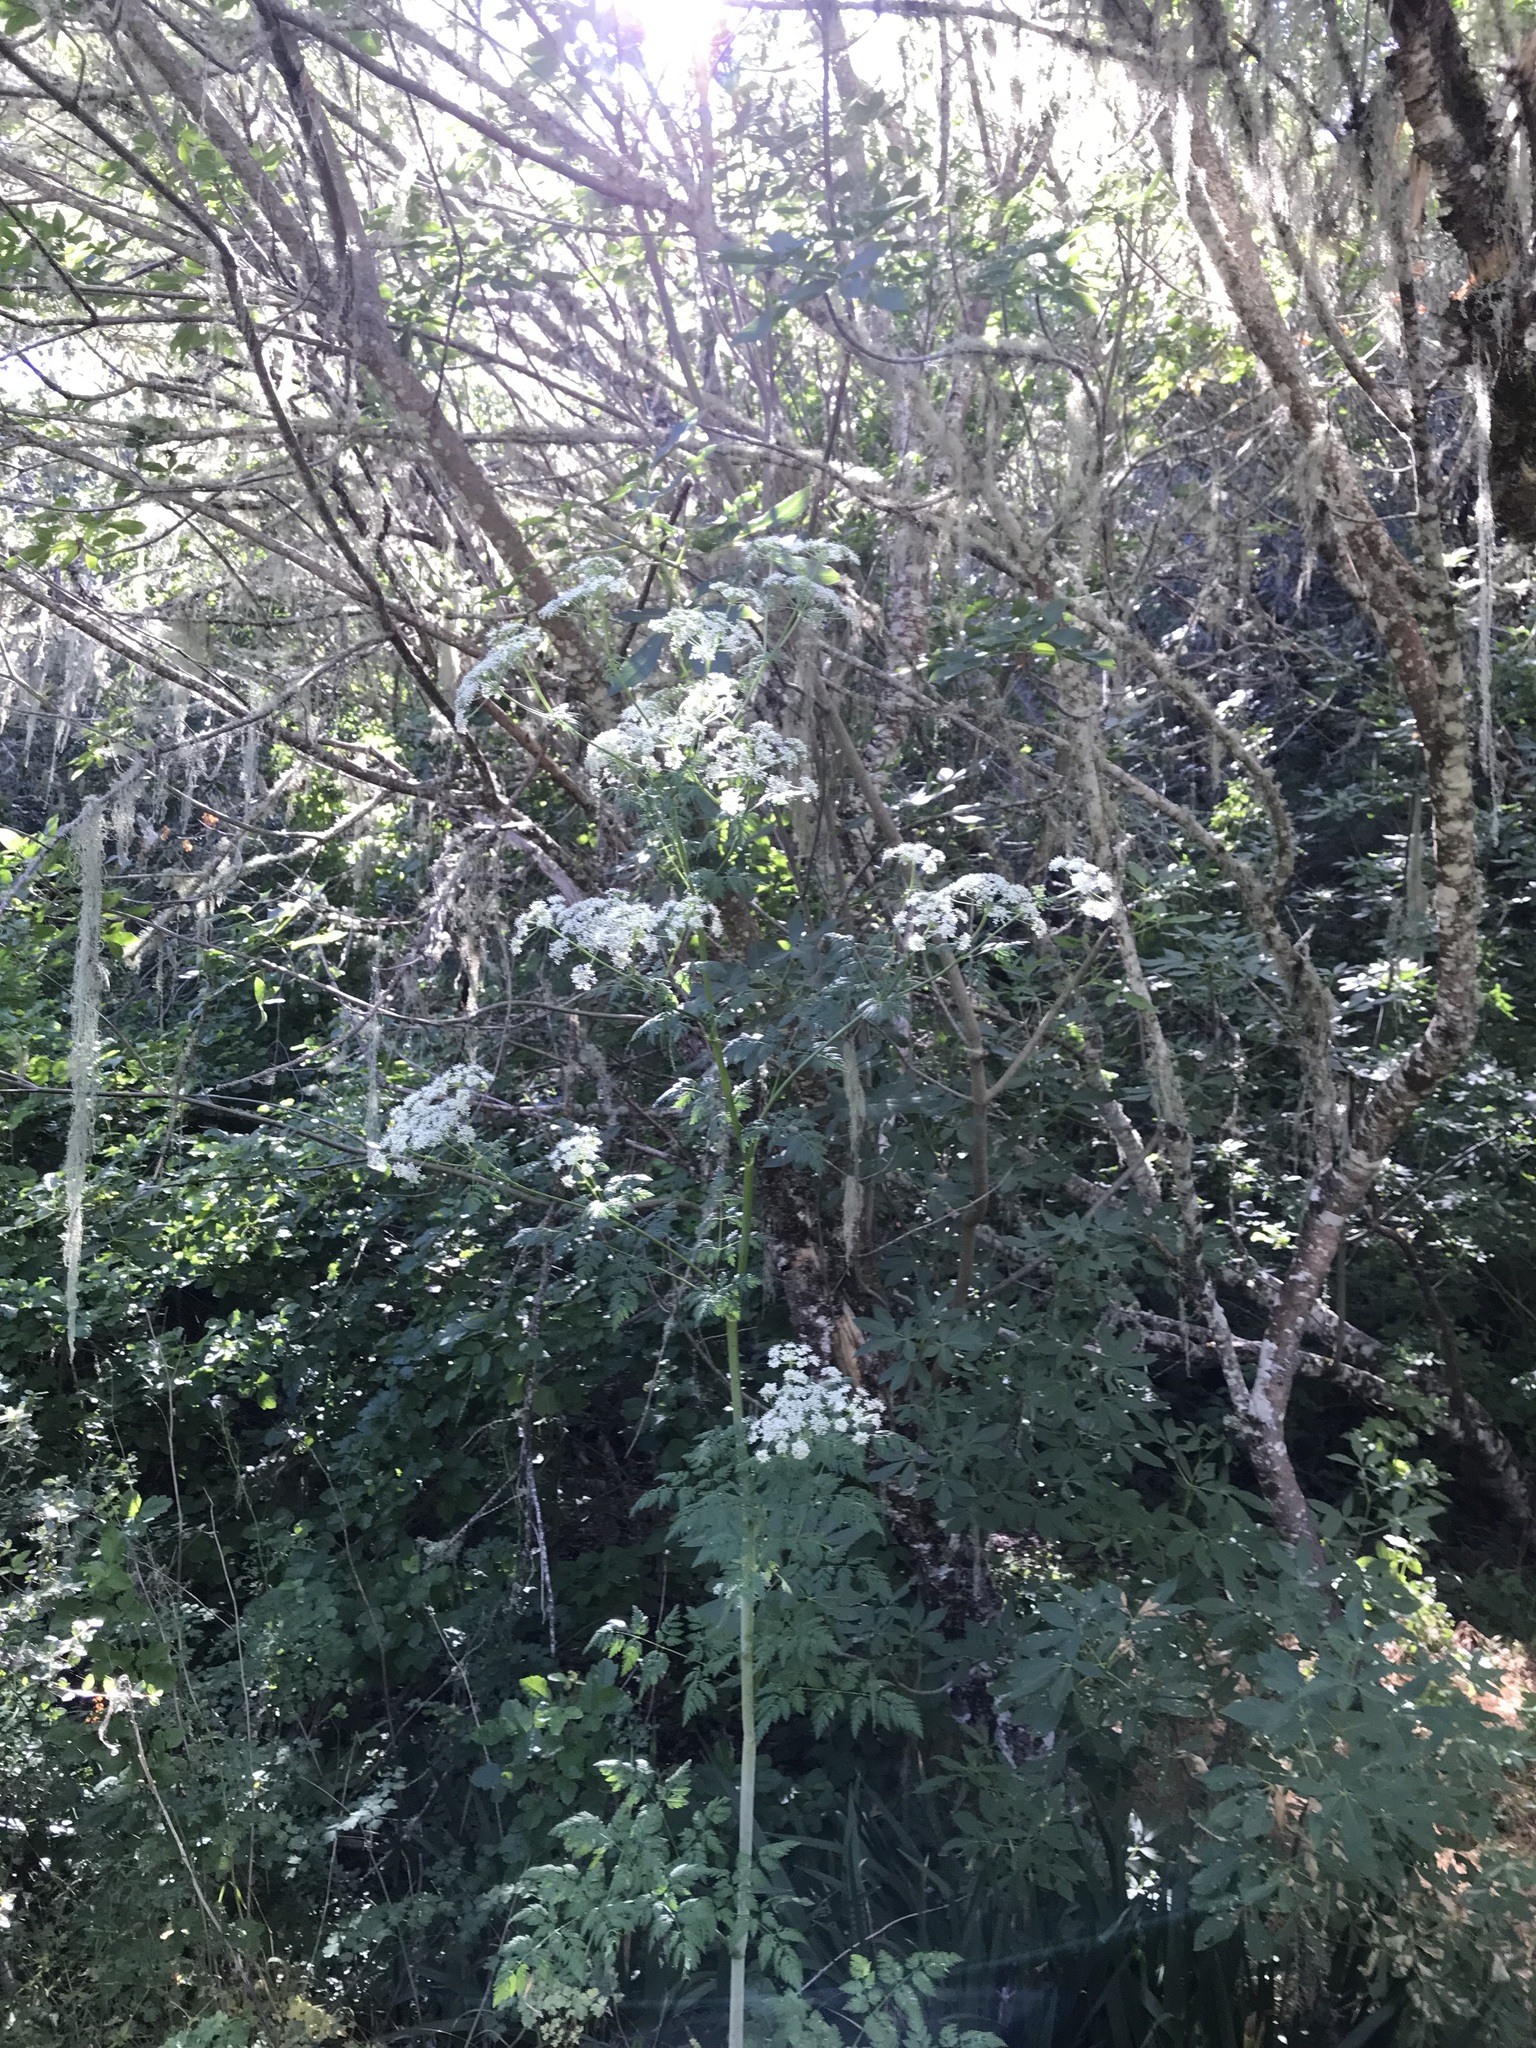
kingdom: Plantae
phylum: Tracheophyta
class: Magnoliopsida
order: Apiales
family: Apiaceae
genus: Conium
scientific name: Conium maculatum
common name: Hemlock
